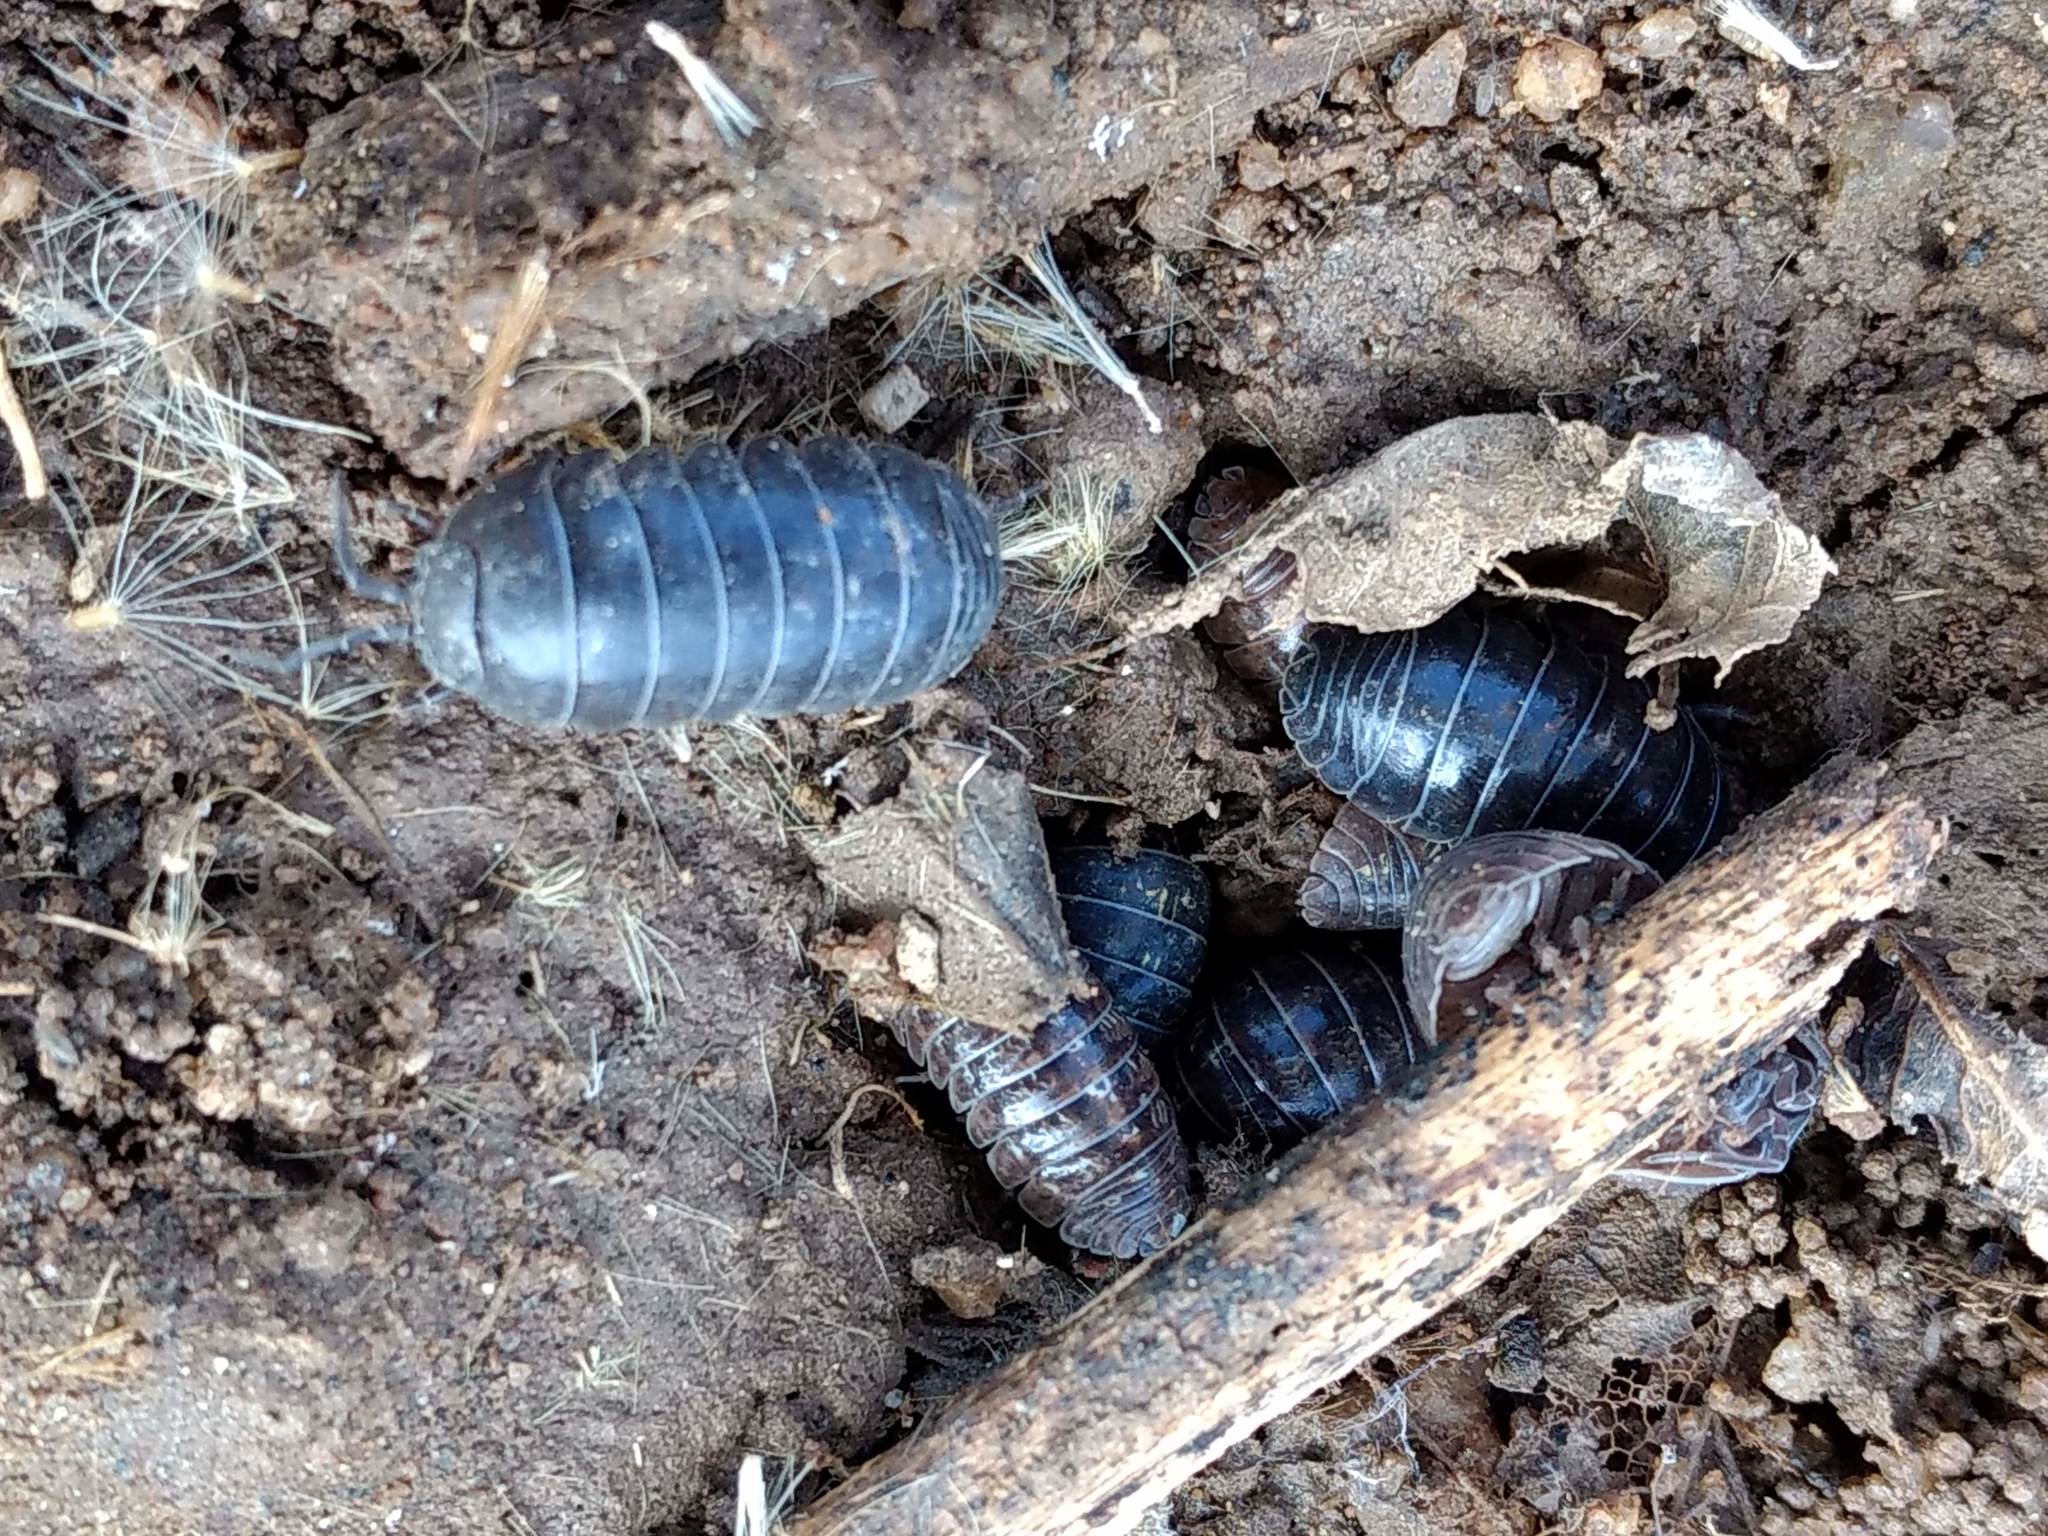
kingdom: Animalia
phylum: Arthropoda
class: Malacostraca
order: Isopoda
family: Armadillidiidae
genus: Armadillidium
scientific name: Armadillidium vulgare
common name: Common pill woodlouse
